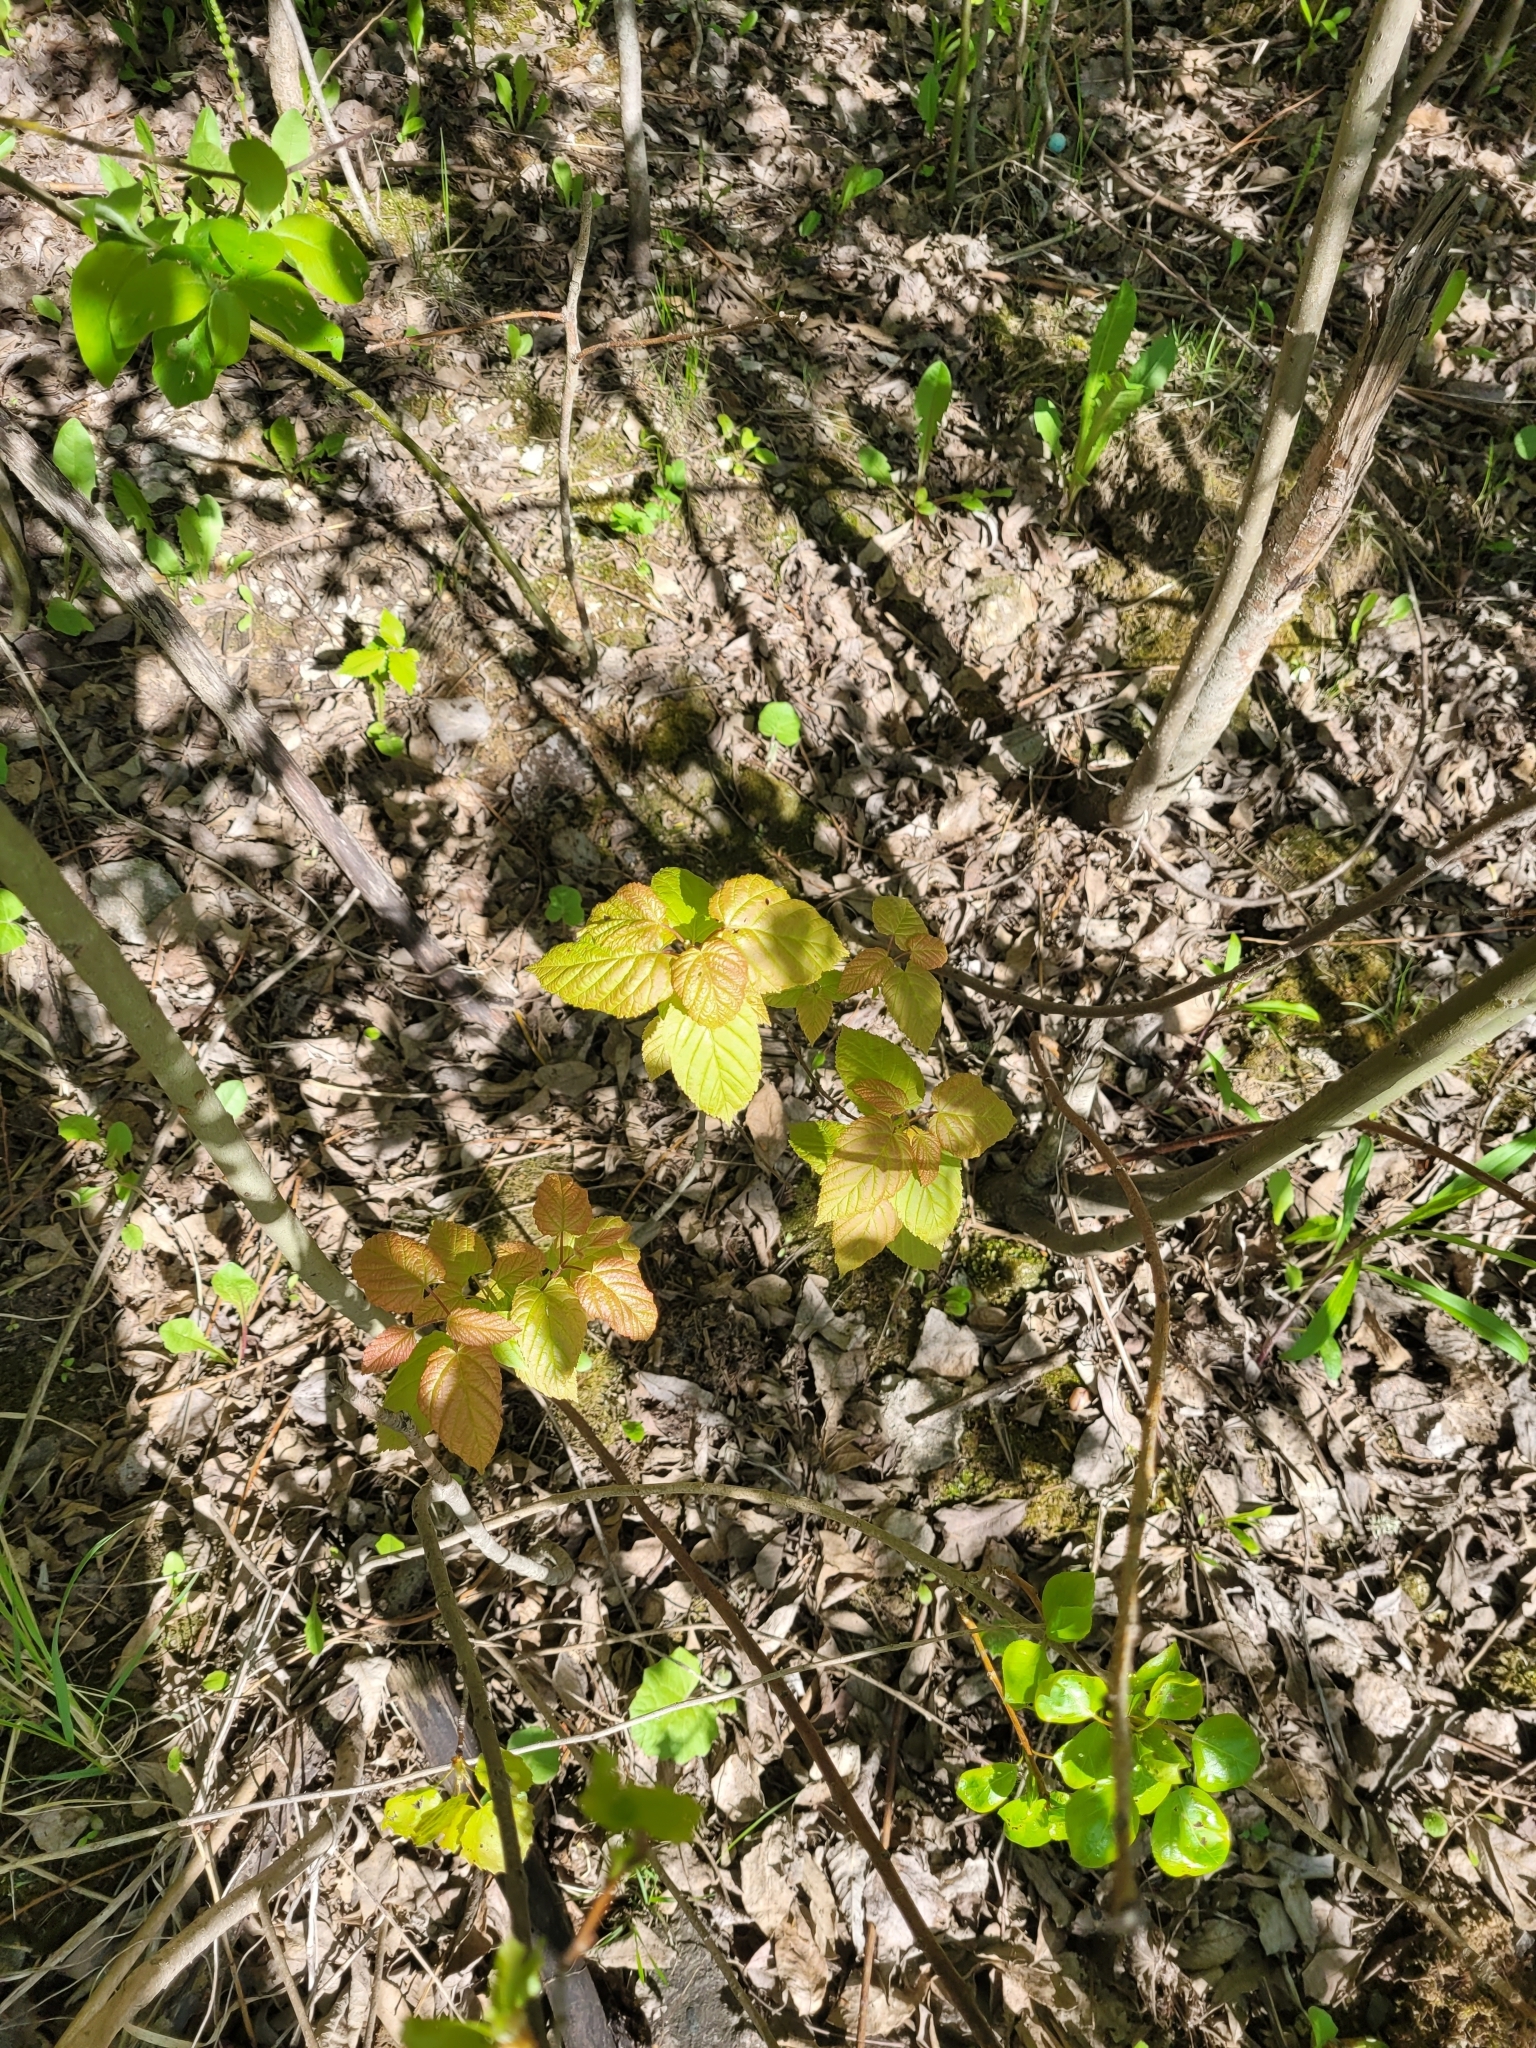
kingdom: Plantae
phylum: Tracheophyta
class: Magnoliopsida
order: Sapindales
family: Sapindaceae
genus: Acer
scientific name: Acer tataricum
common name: Tartar maple
